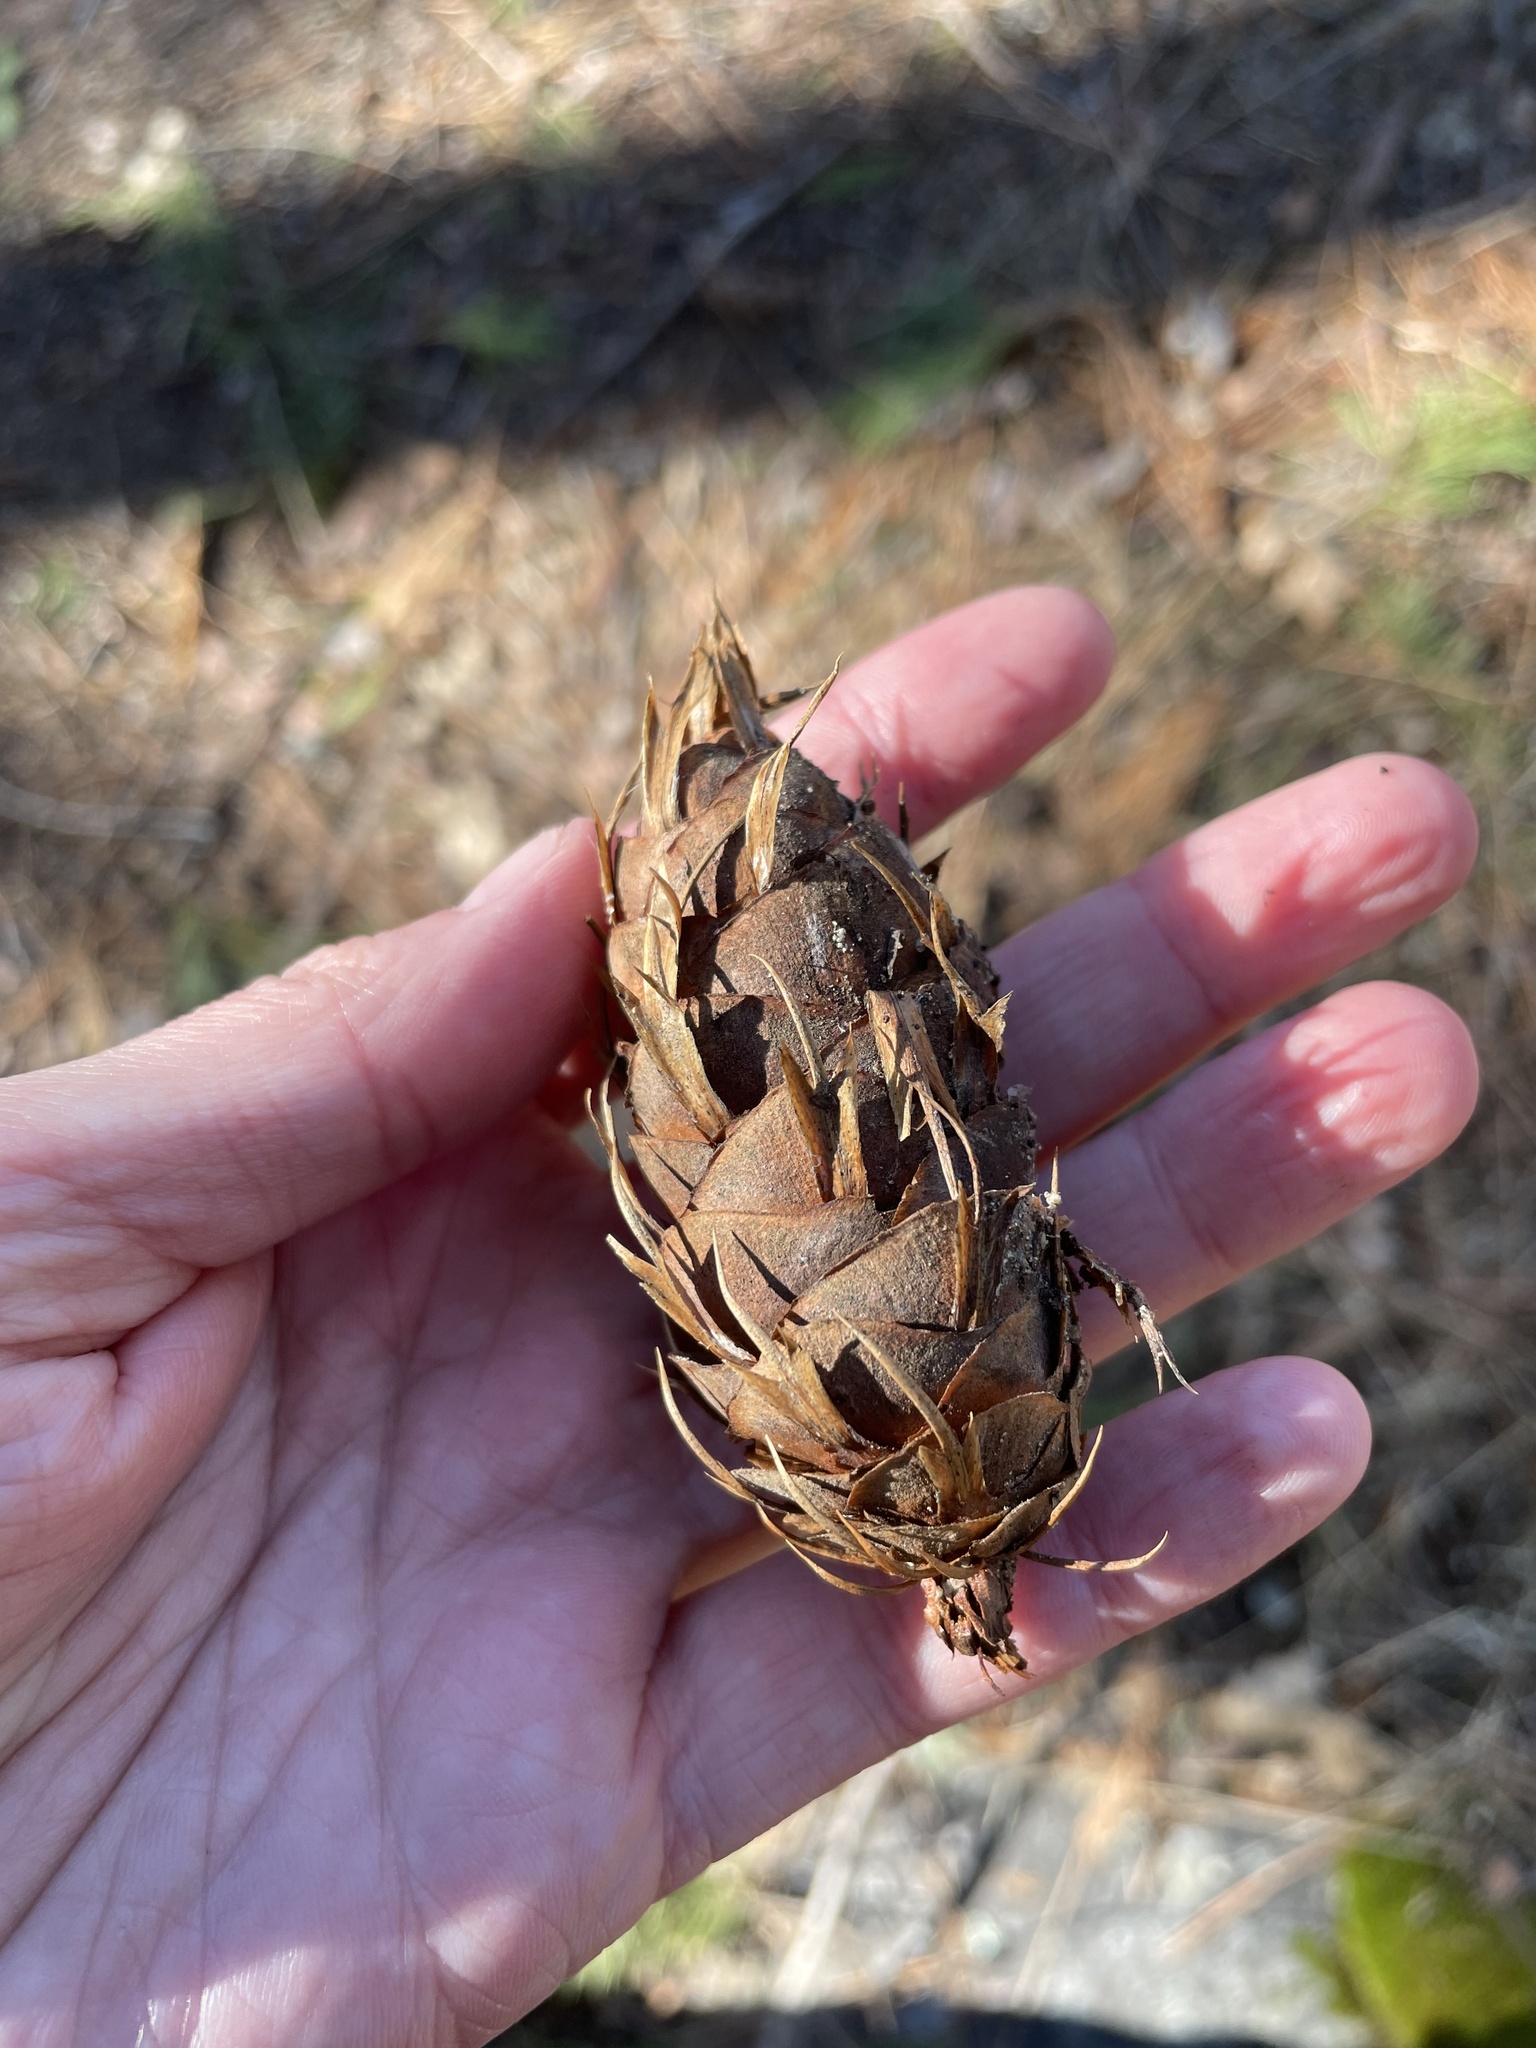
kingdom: Plantae
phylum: Tracheophyta
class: Pinopsida
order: Pinales
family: Pinaceae
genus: Pseudotsuga
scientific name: Pseudotsuga menziesii
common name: Douglas fir
